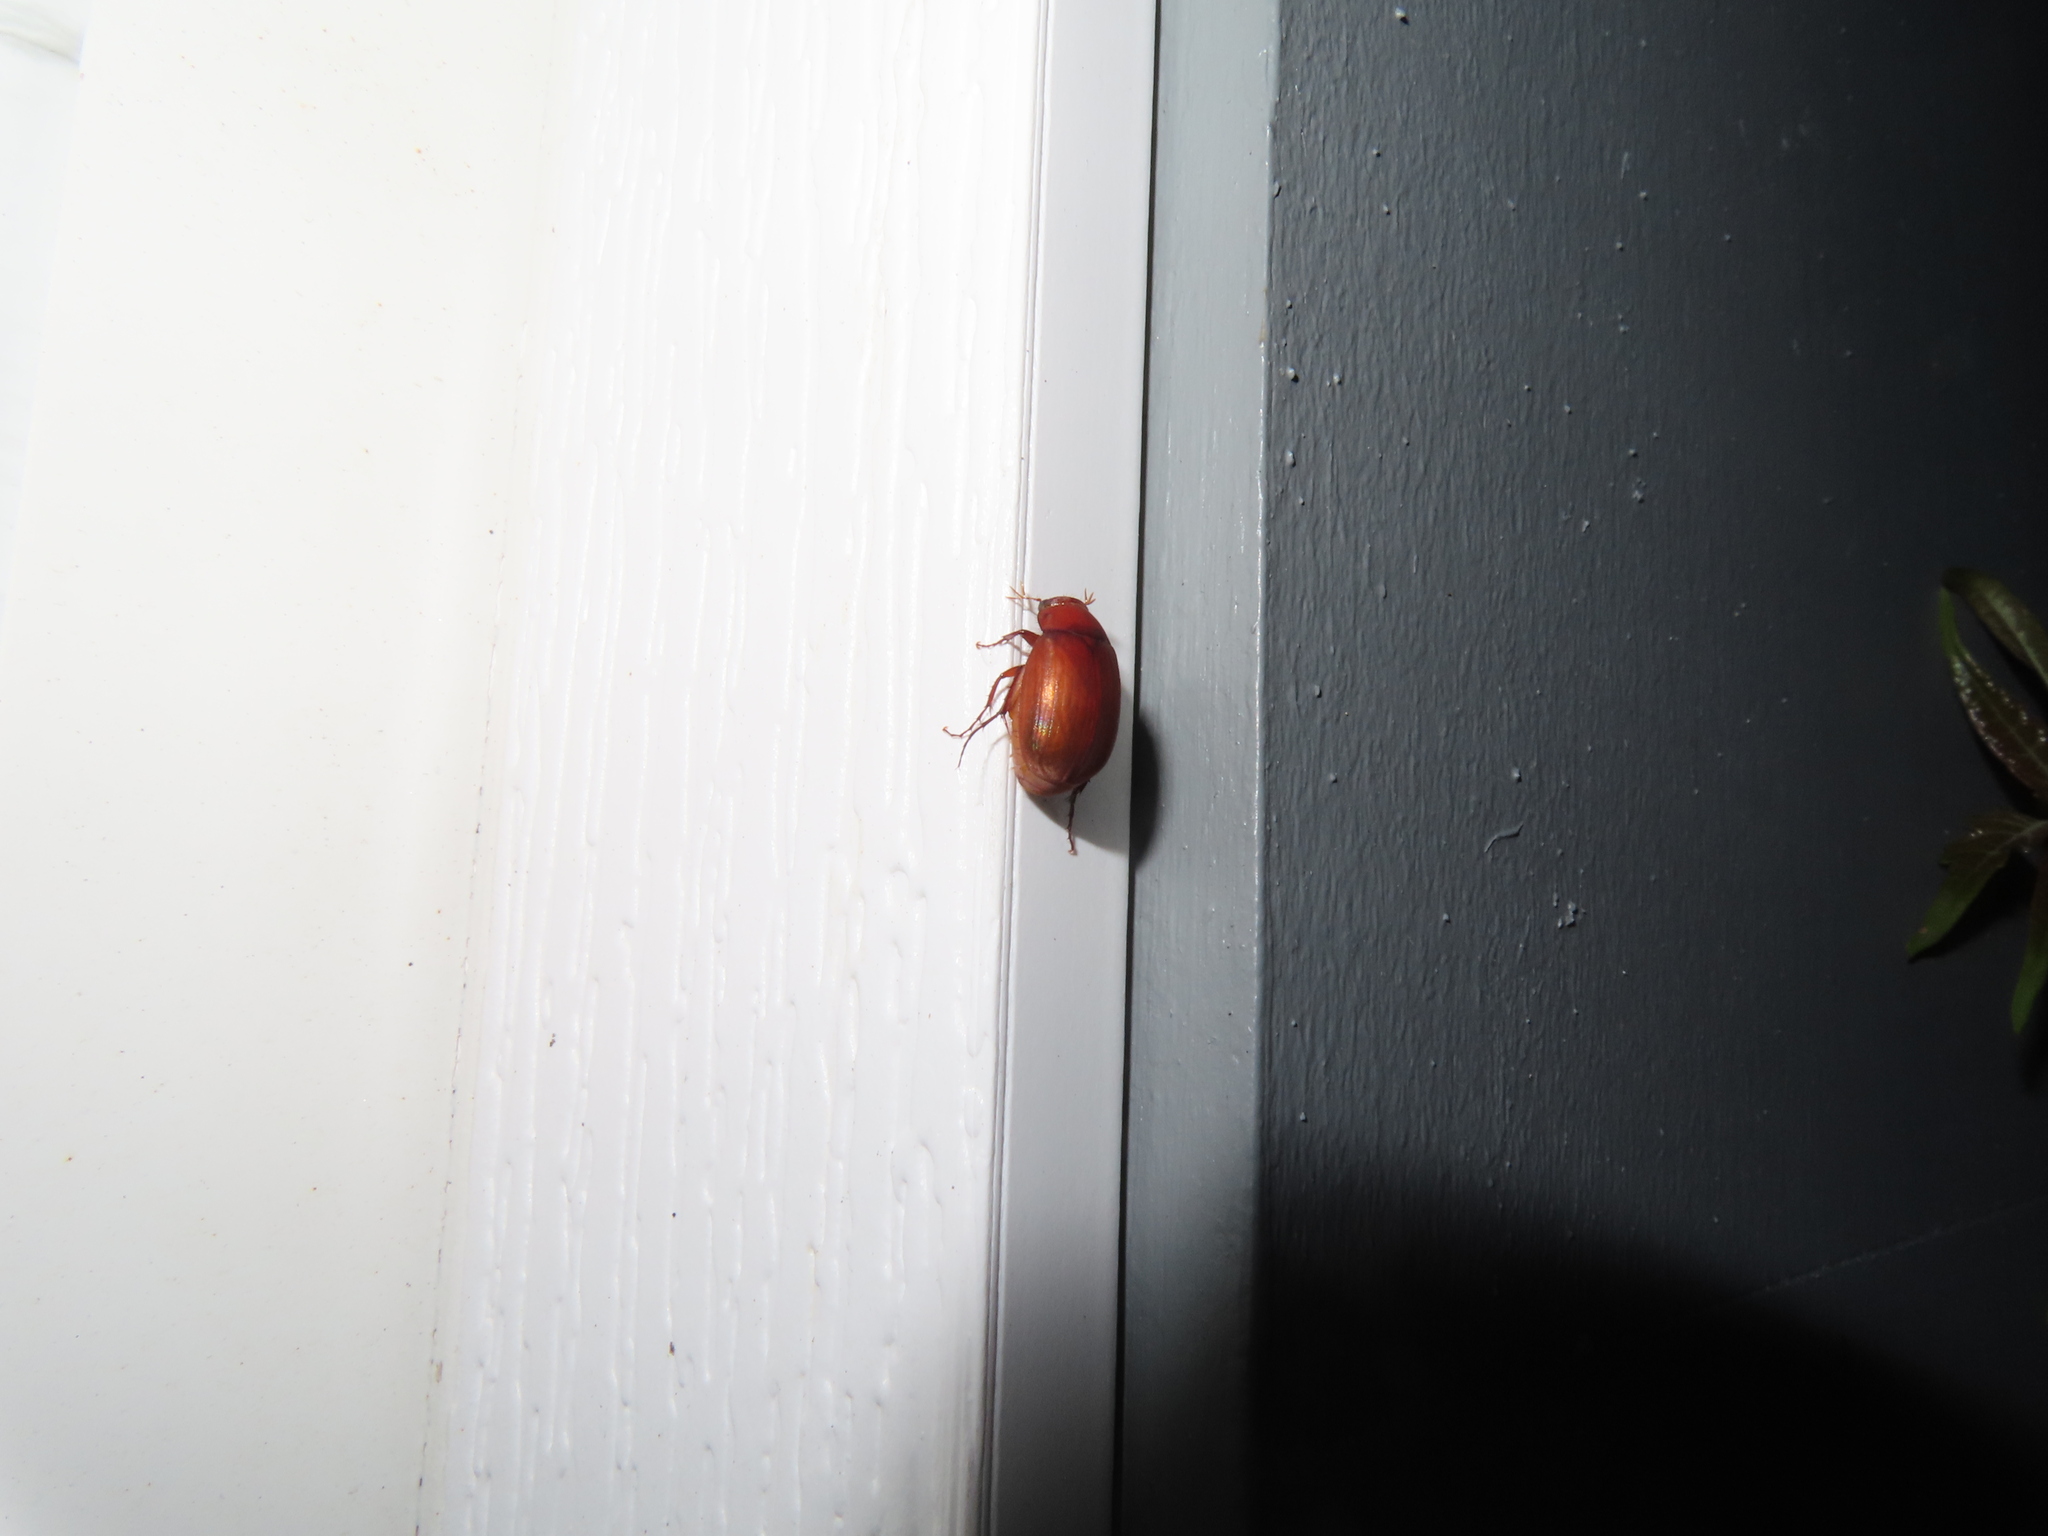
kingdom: Animalia
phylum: Arthropoda
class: Insecta
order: Coleoptera
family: Scarabaeidae
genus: Maladera
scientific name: Maladera formosae
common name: Asiatic garden beetle
